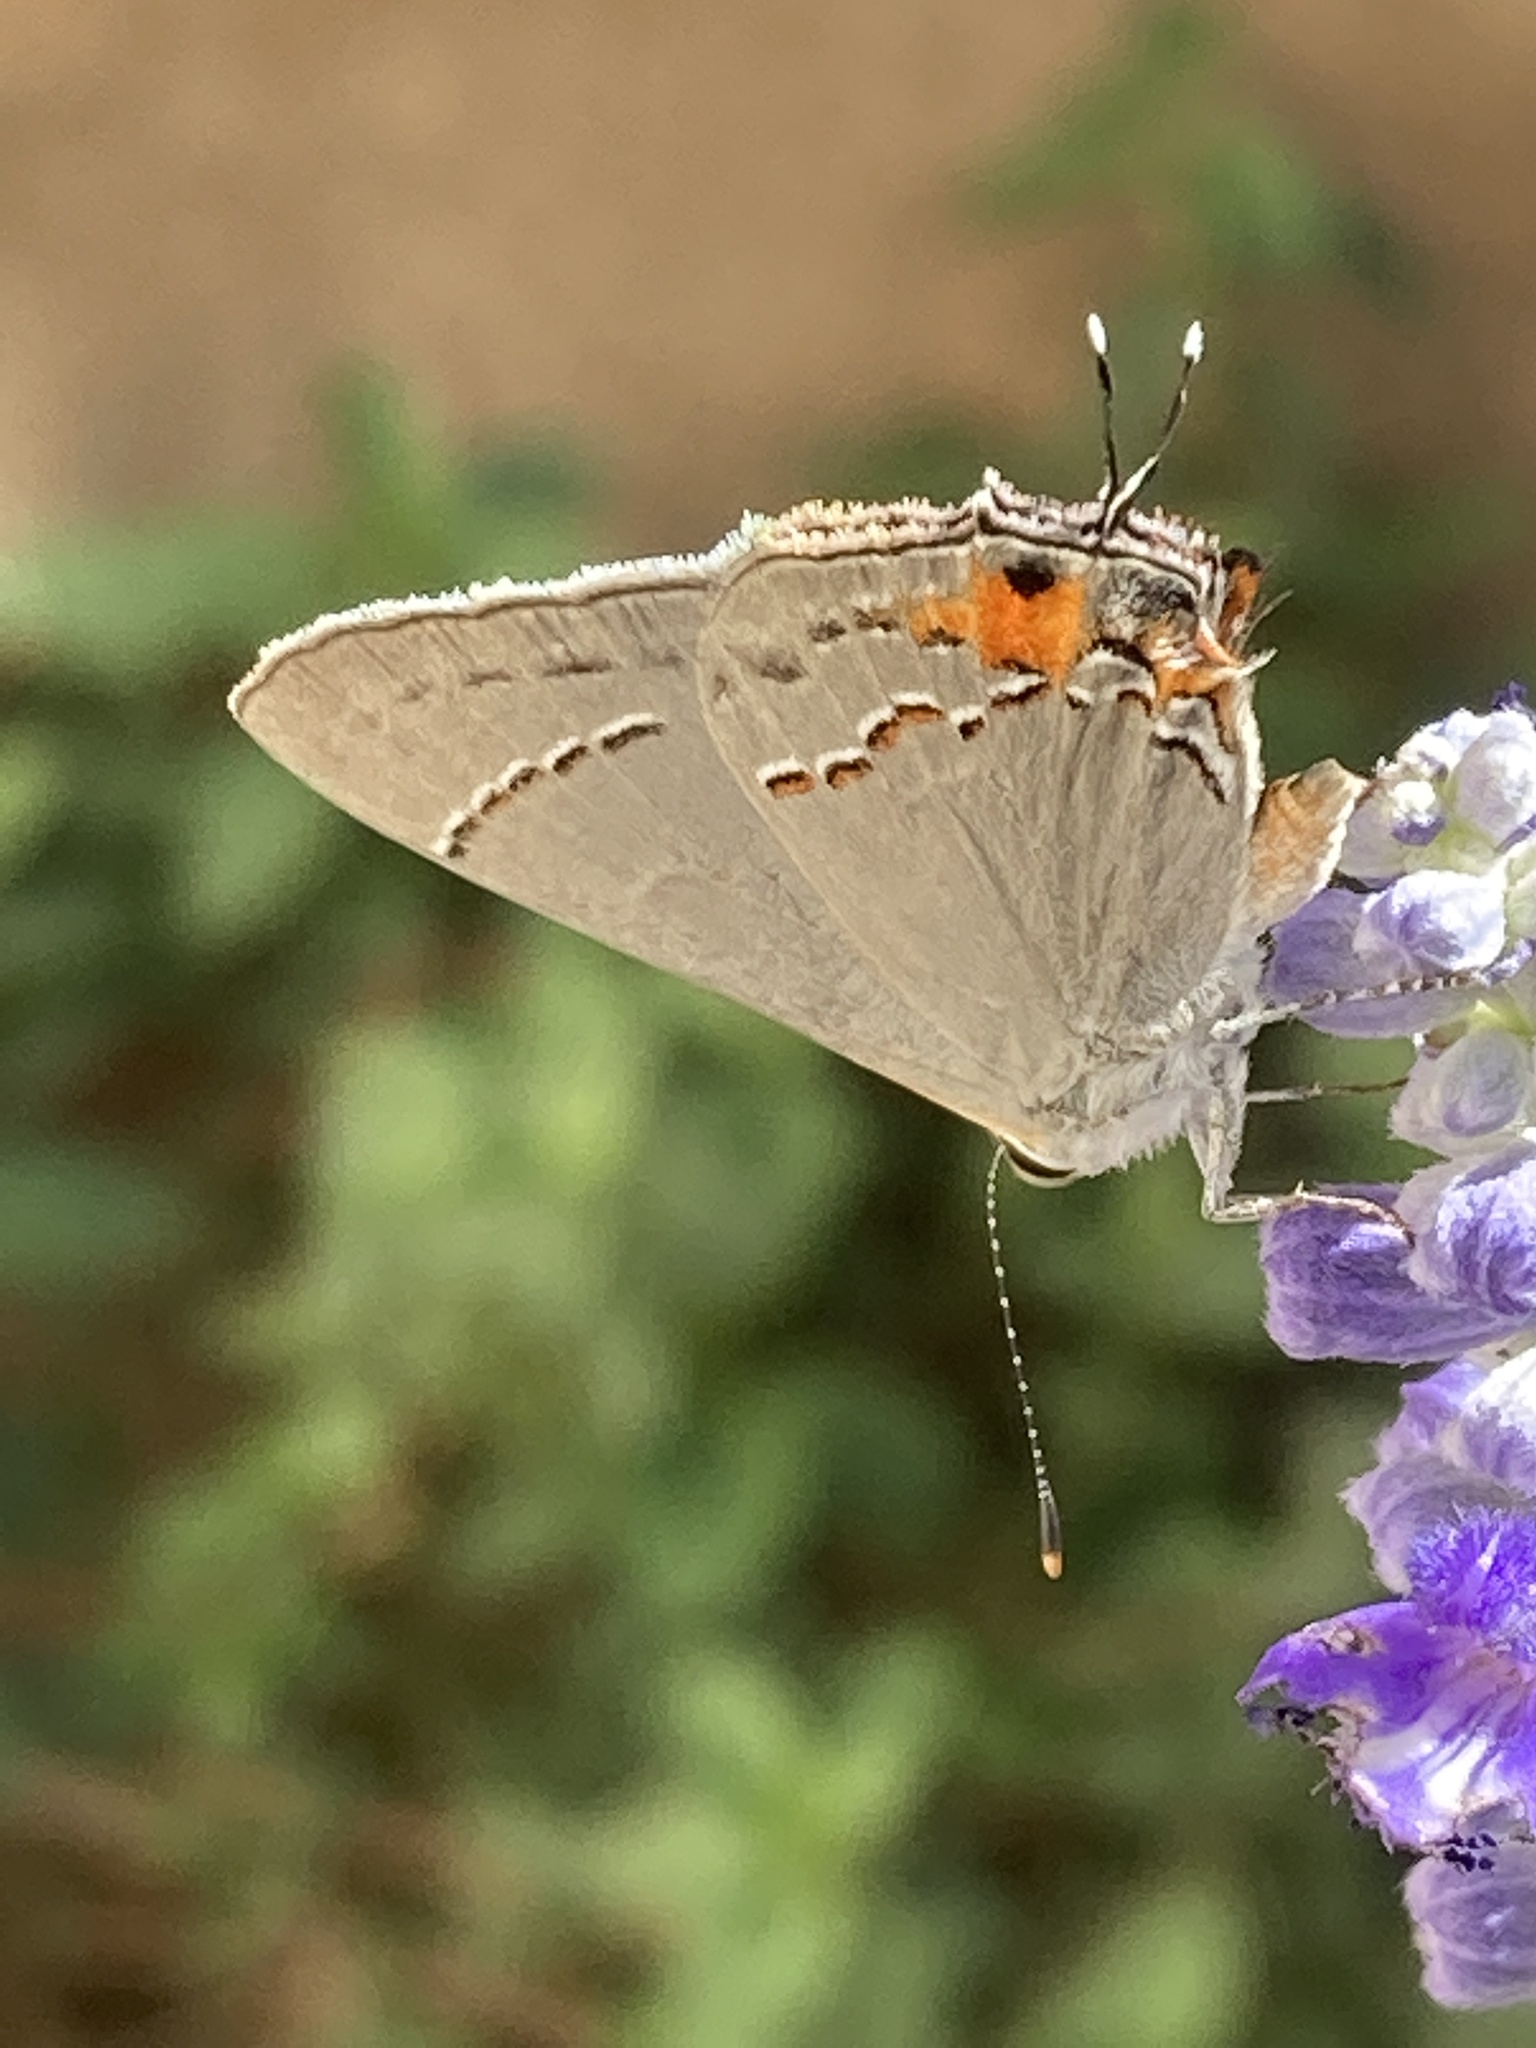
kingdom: Animalia
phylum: Arthropoda
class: Insecta
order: Lepidoptera
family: Lycaenidae
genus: Strymon
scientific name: Strymon melinus
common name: Gray hairstreak
